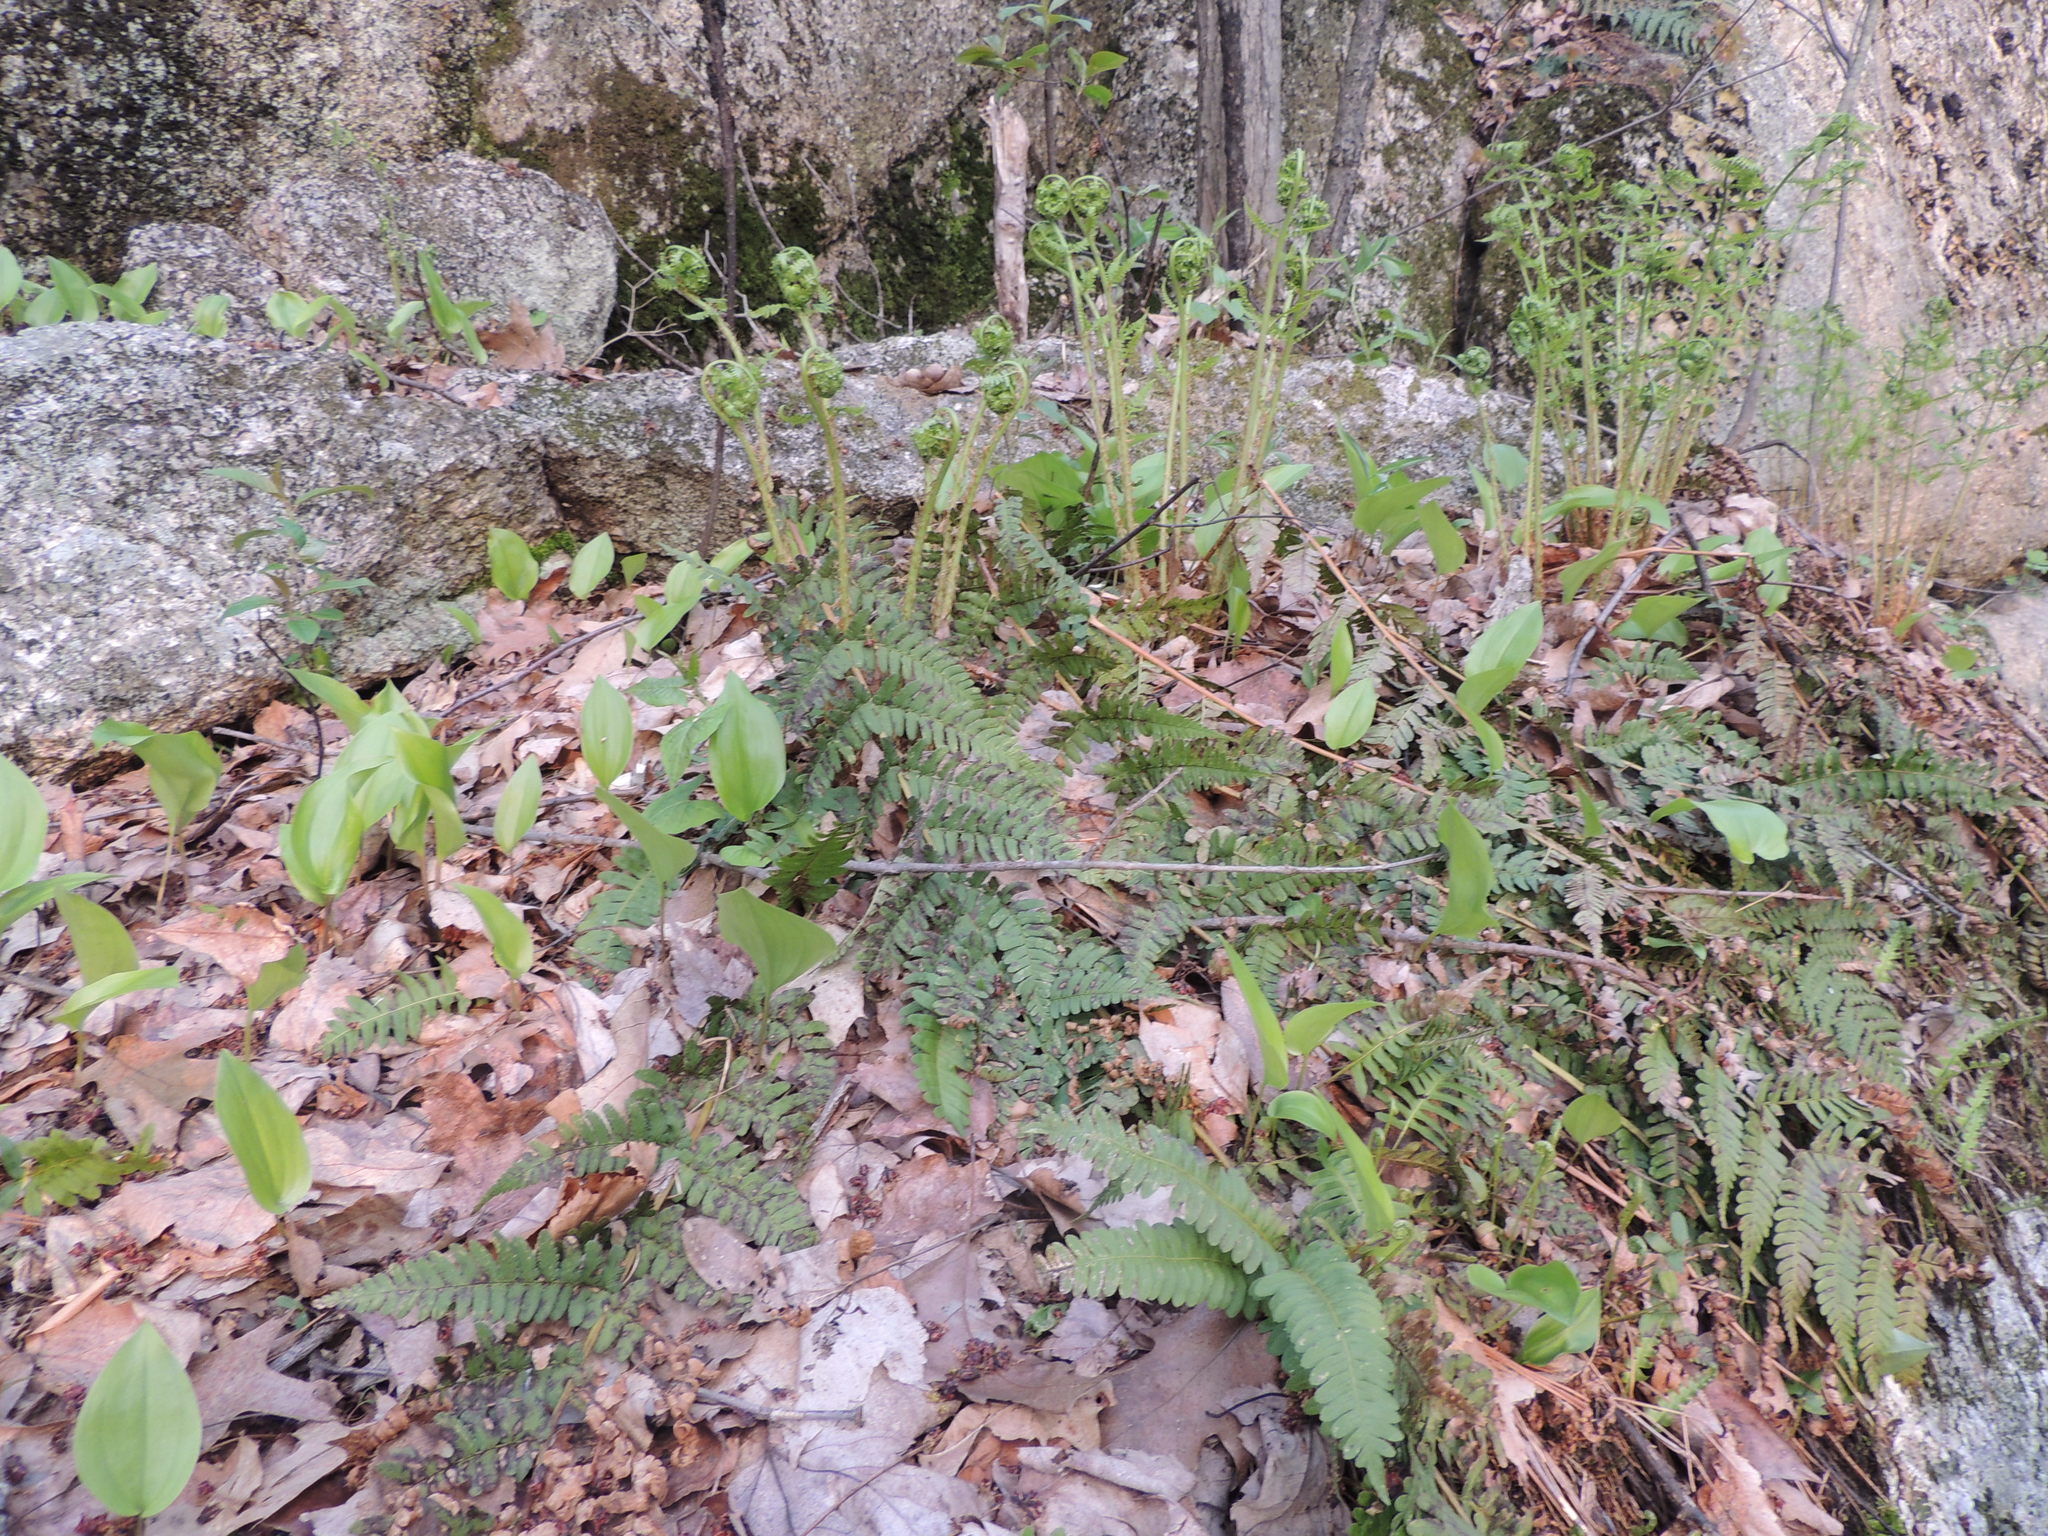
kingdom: Plantae
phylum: Tracheophyta
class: Liliopsida
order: Asparagales
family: Asparagaceae
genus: Maianthemum
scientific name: Maianthemum canadense
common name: False lily-of-the-valley
